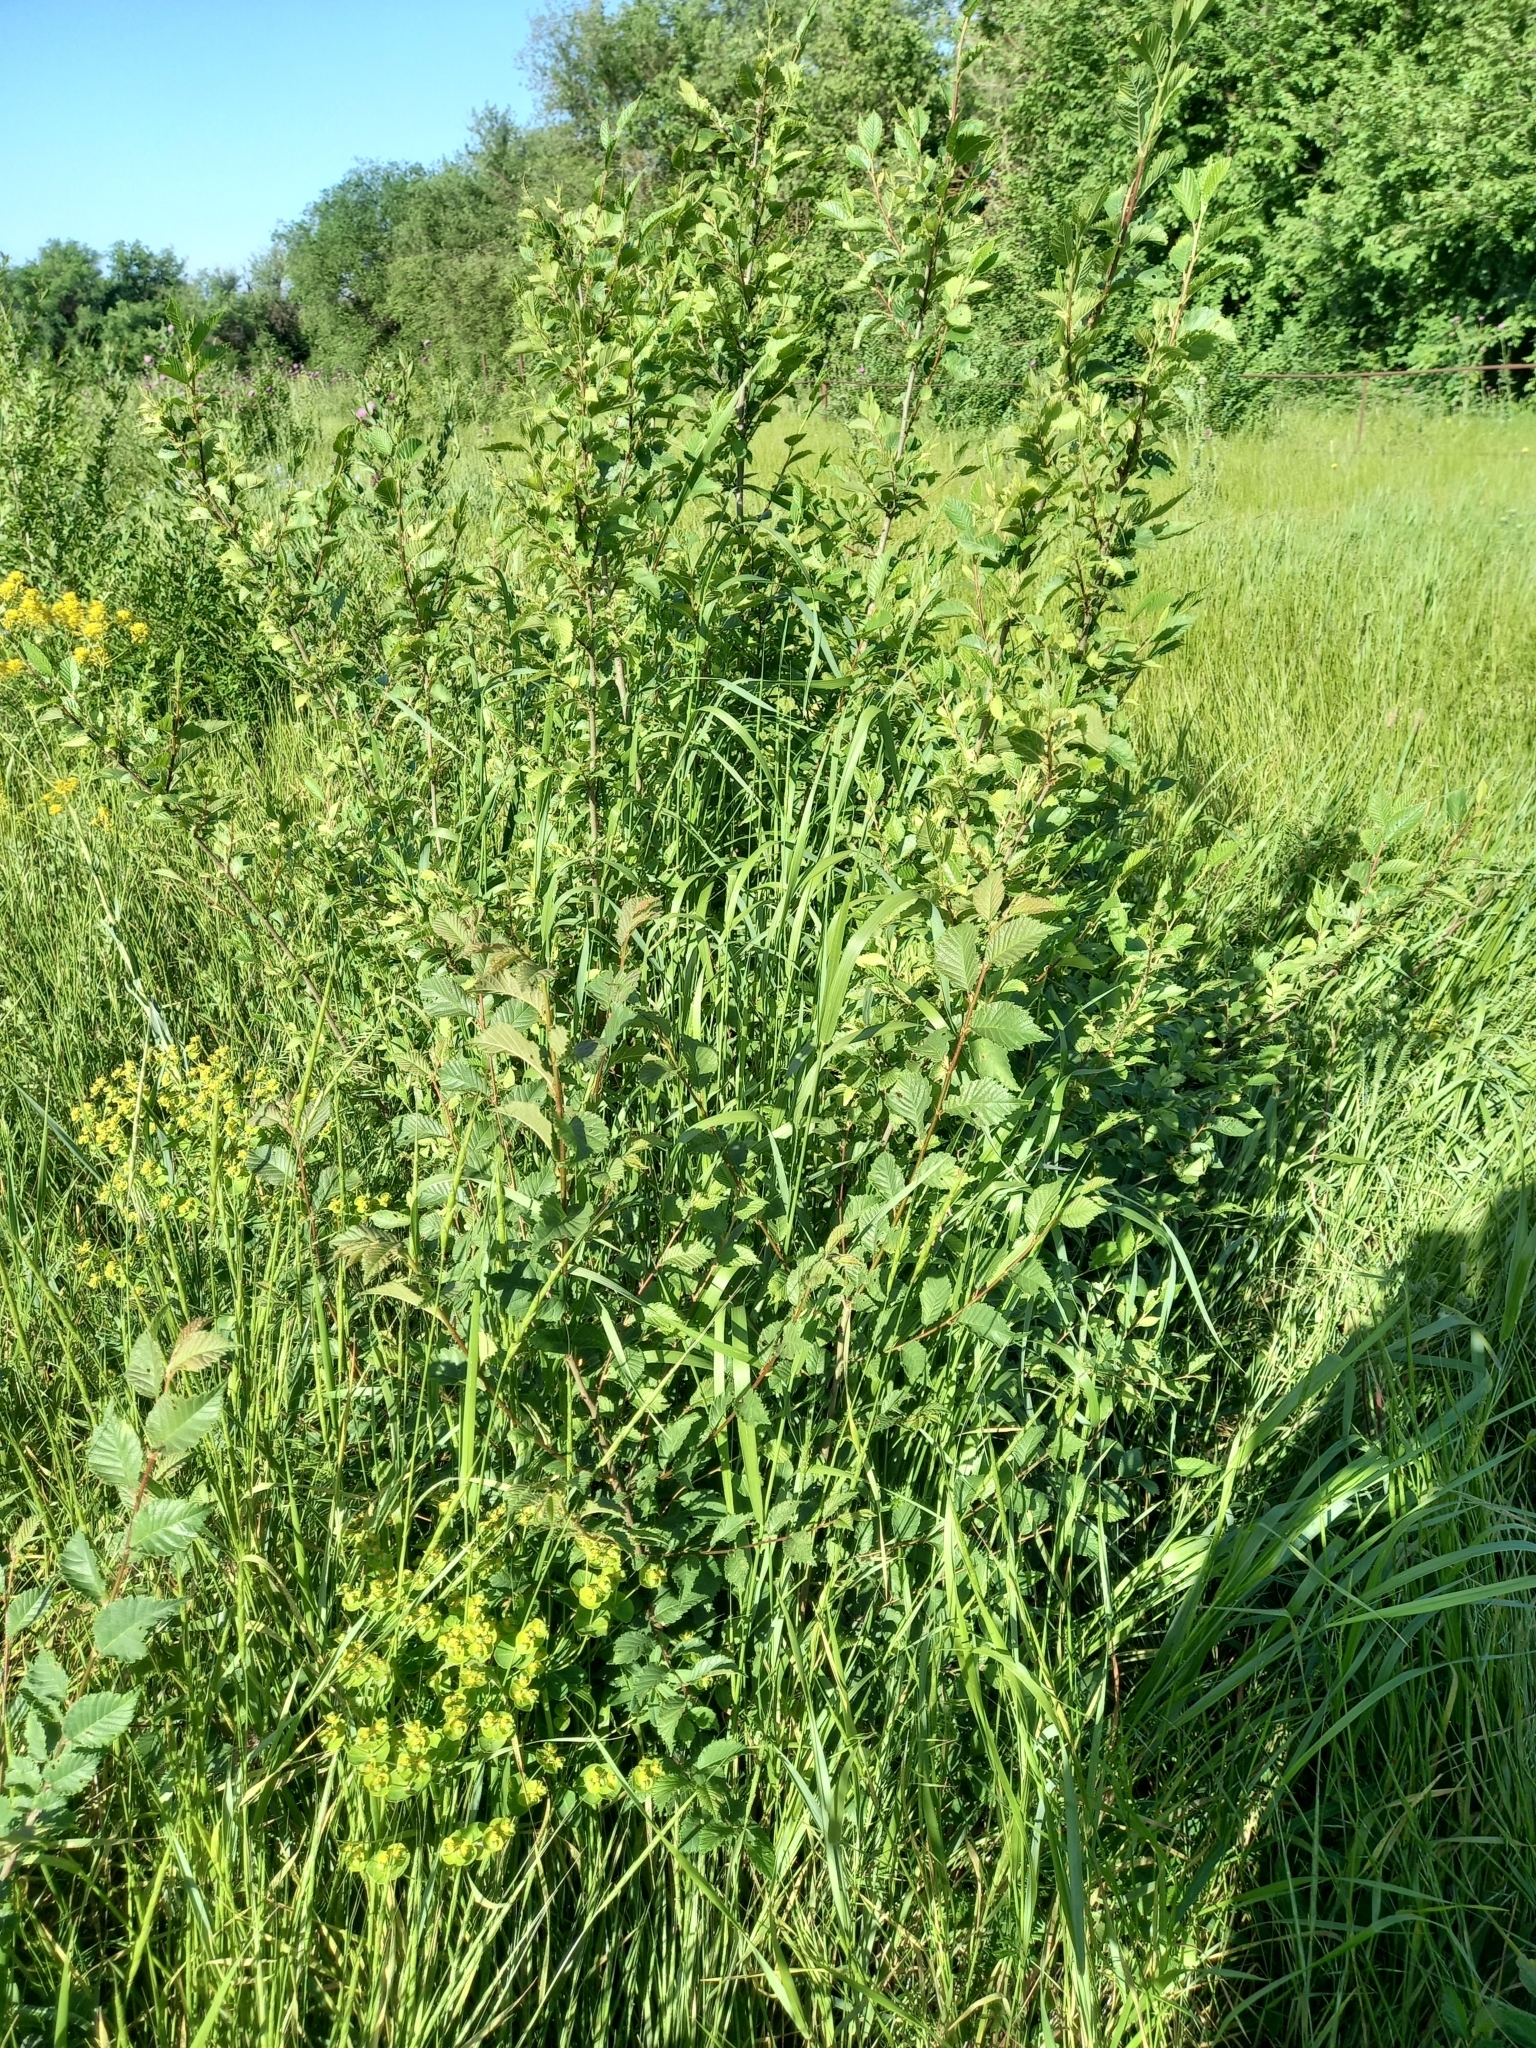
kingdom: Plantae
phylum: Tracheophyta
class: Magnoliopsida
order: Rosales
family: Ulmaceae
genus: Ulmus
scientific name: Ulmus pumila
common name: Siberian elm
